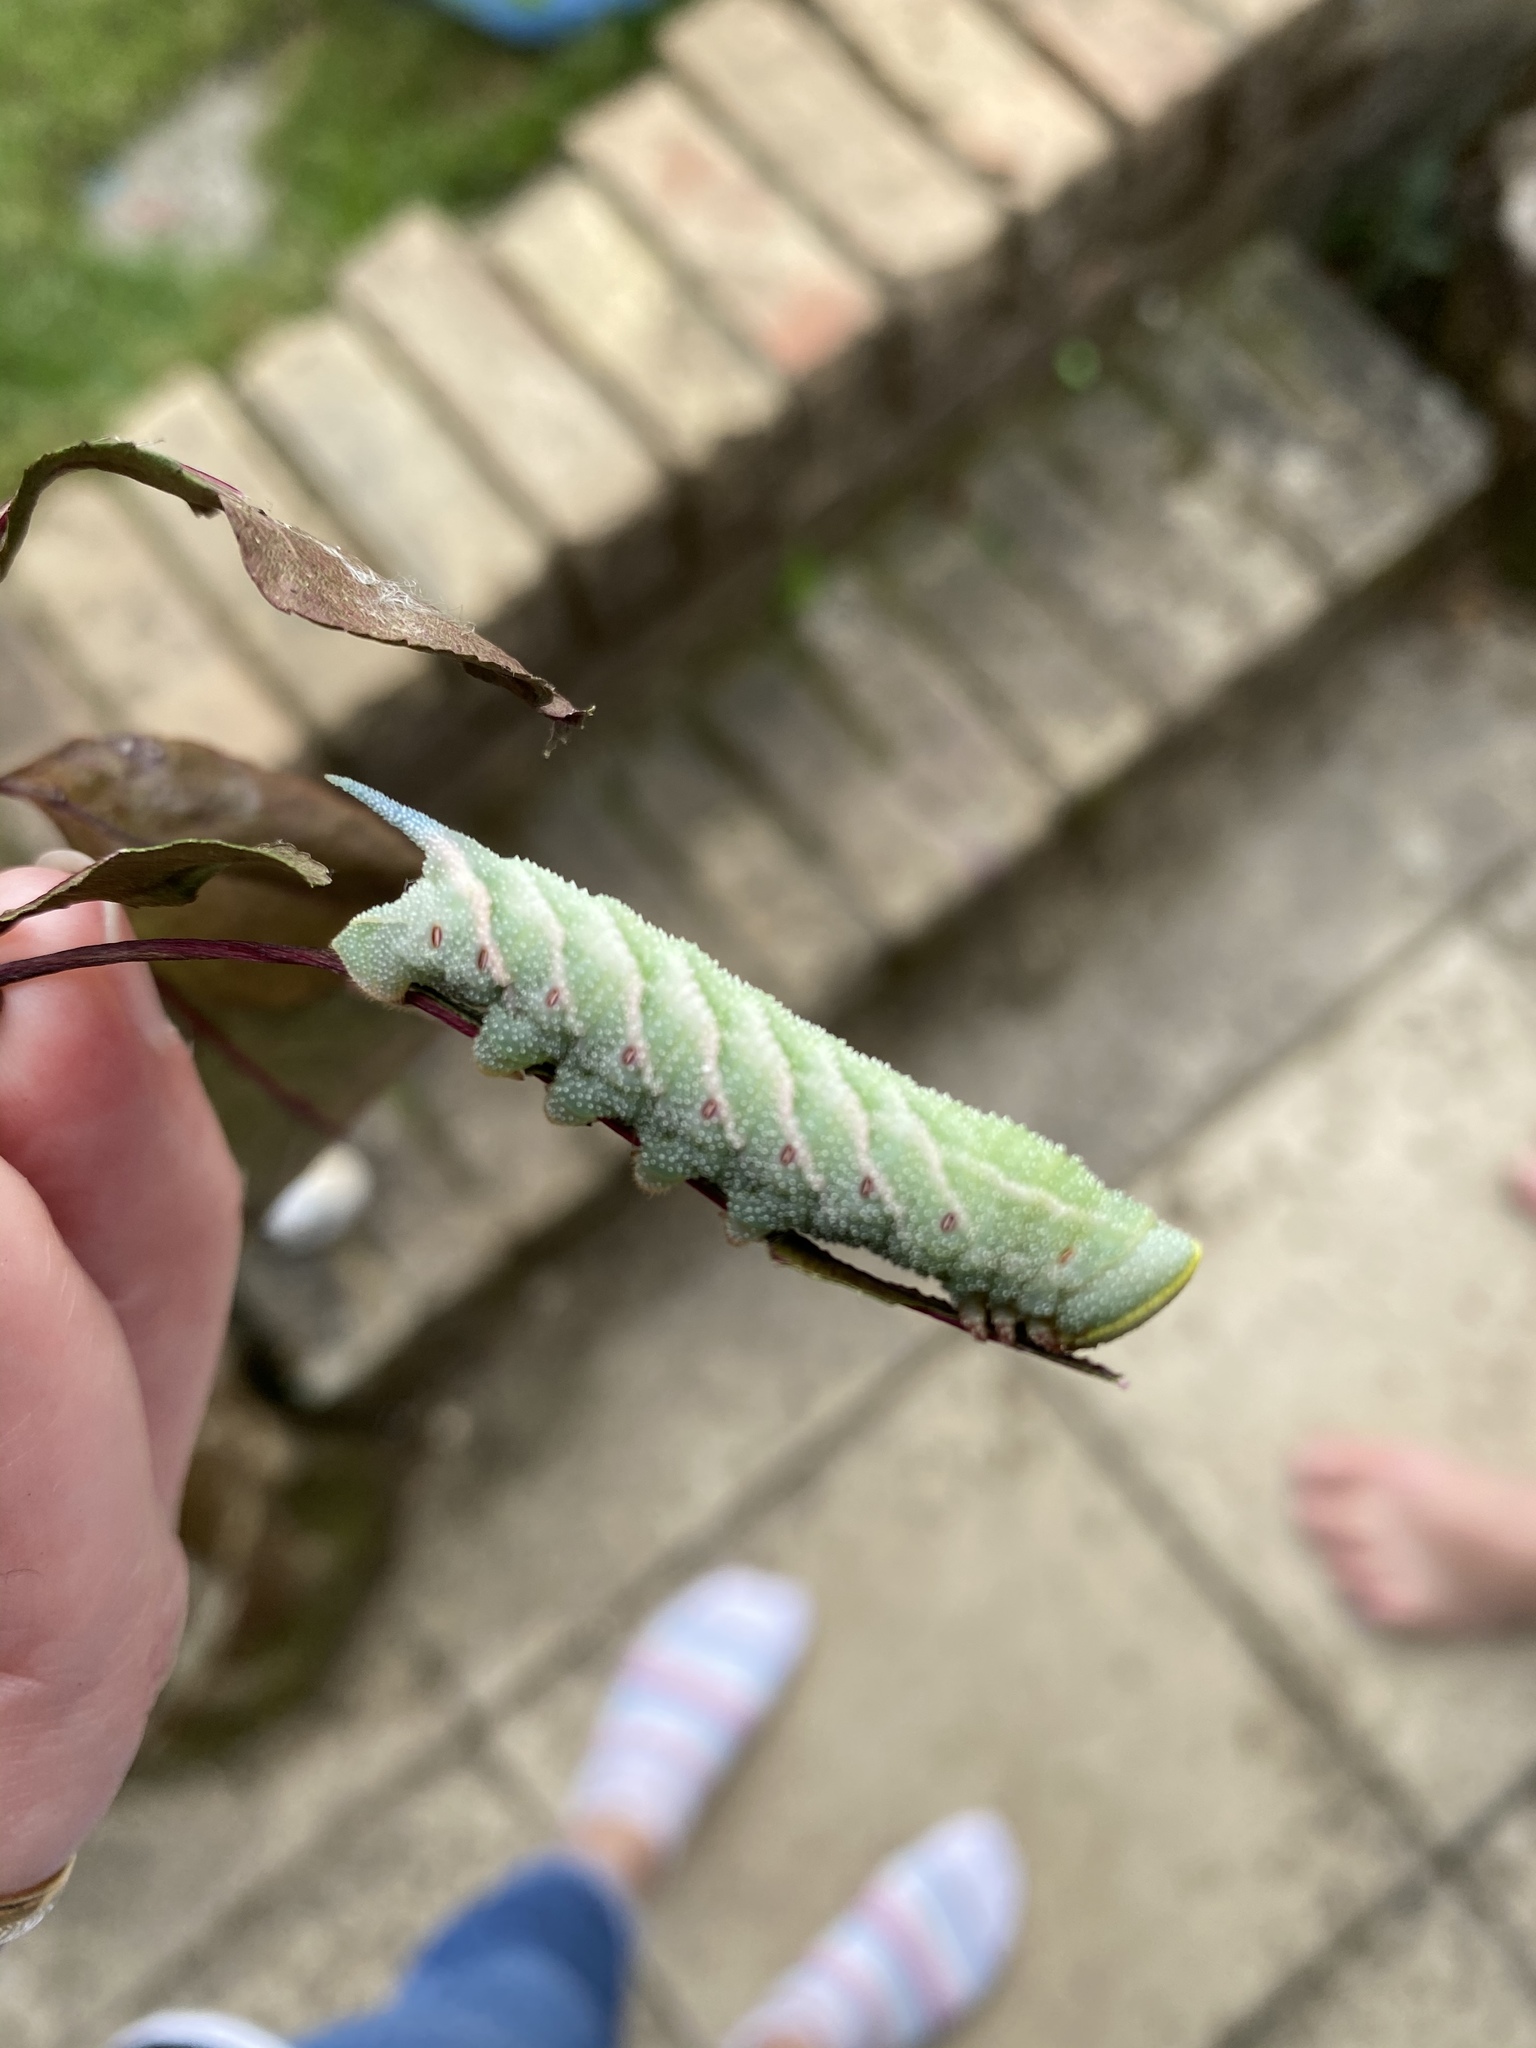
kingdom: Animalia
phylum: Arthropoda
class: Insecta
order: Lepidoptera
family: Sphingidae
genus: Smerinthus
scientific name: Smerinthus ocellata
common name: Eyed hawk-moth
